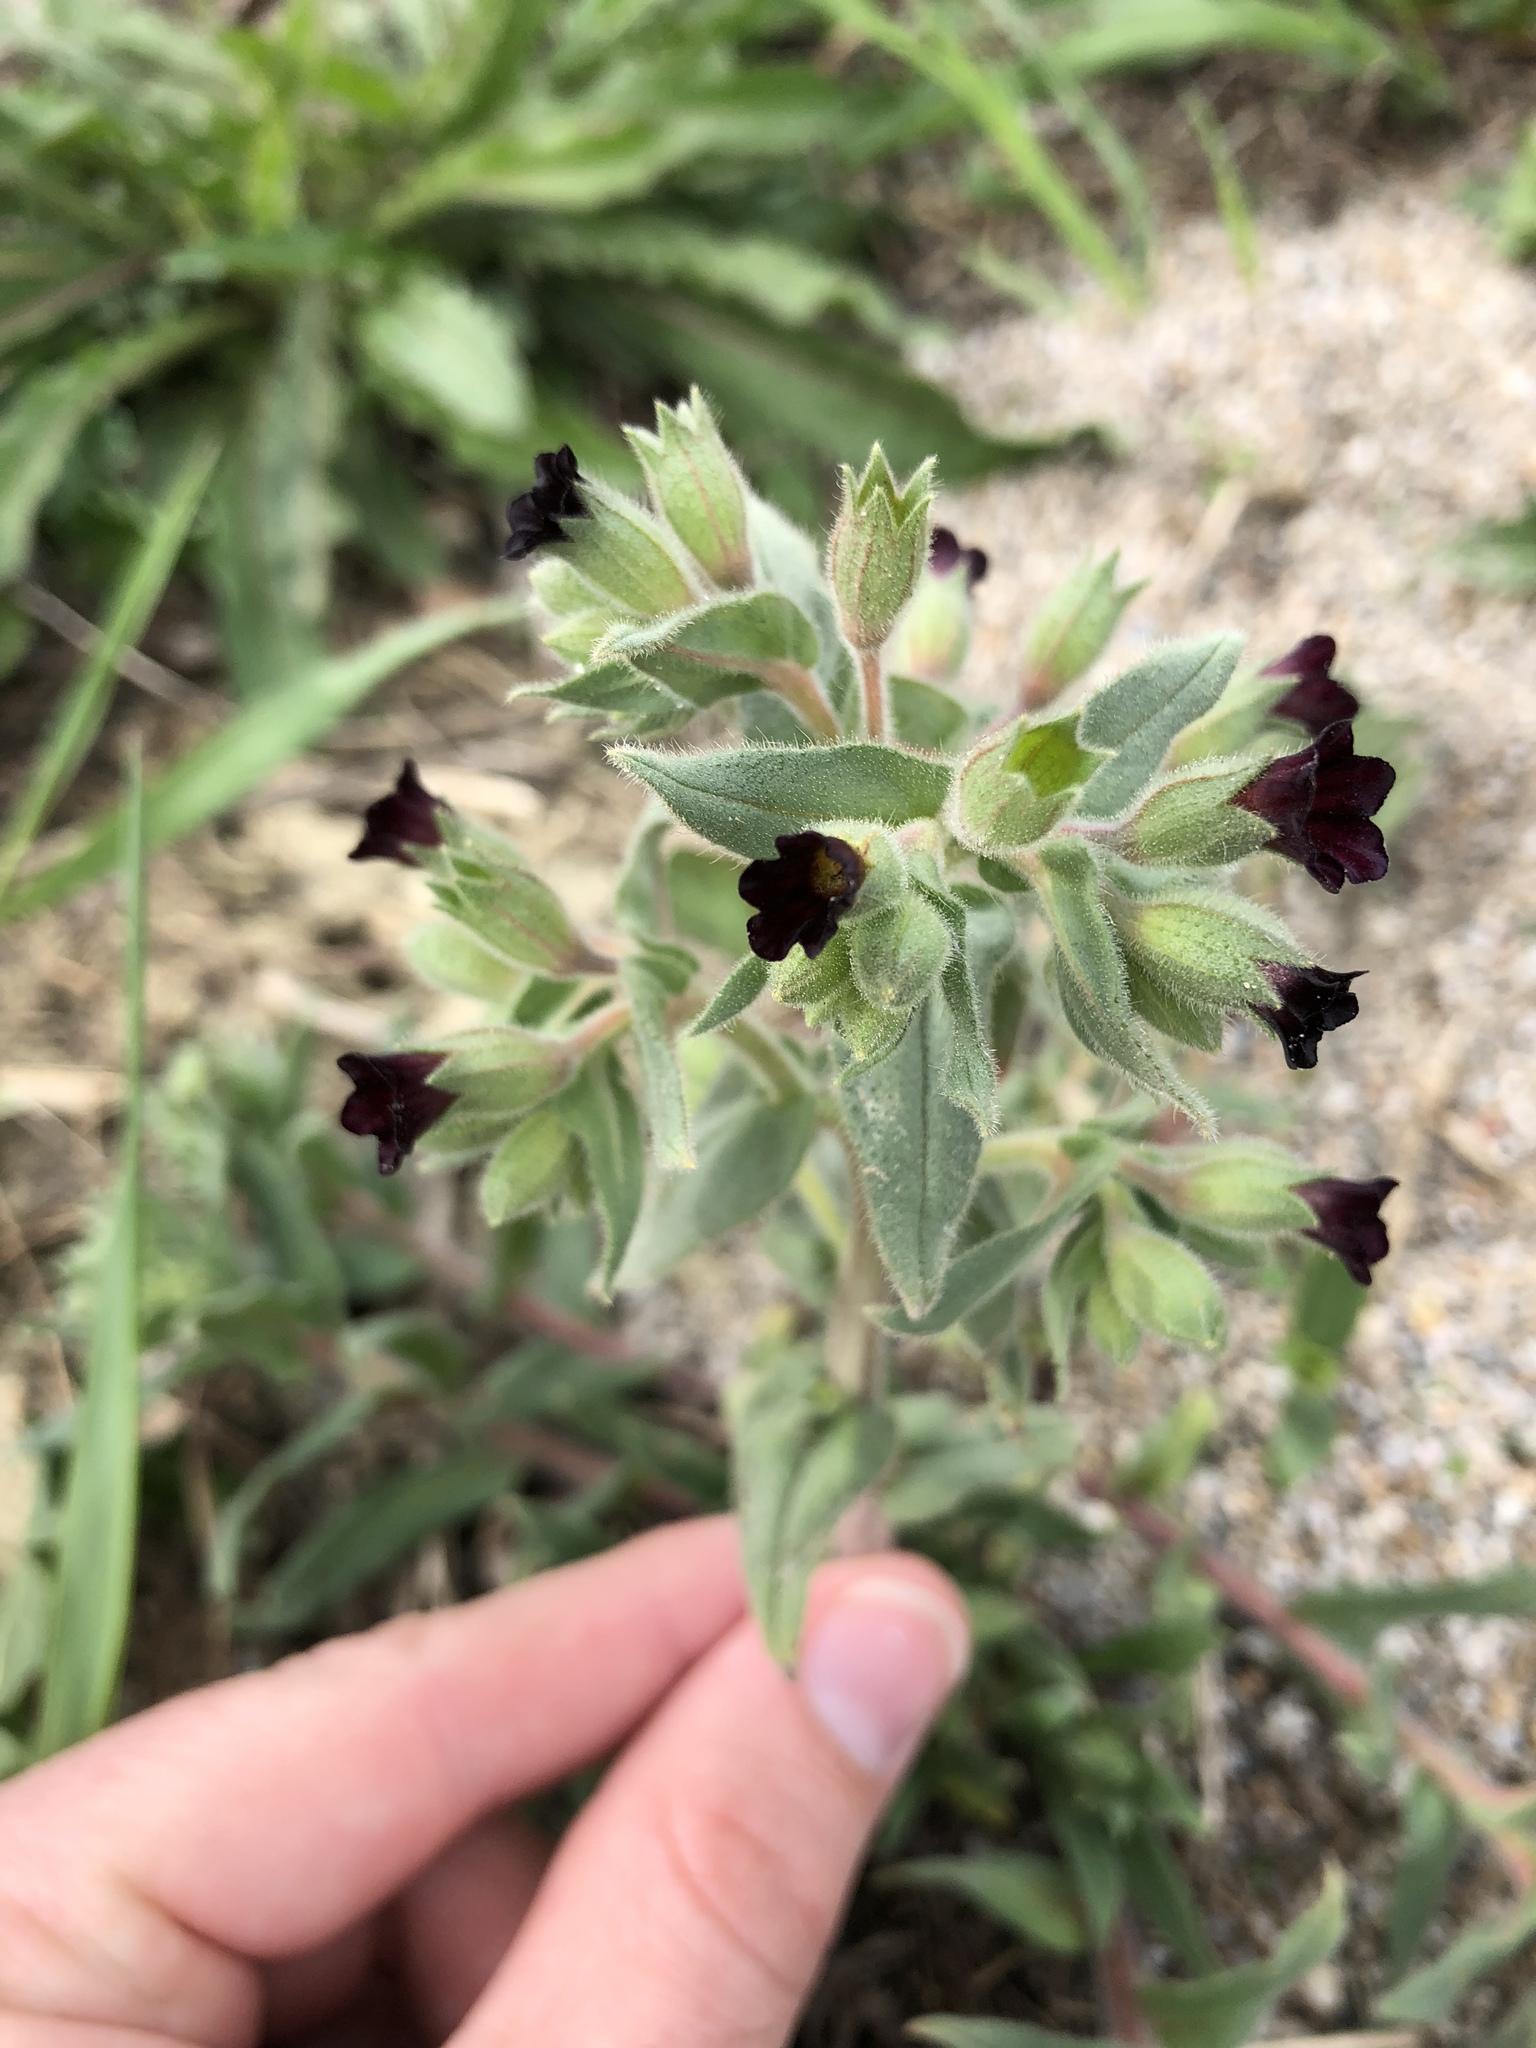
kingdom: Plantae
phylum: Tracheophyta
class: Magnoliopsida
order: Boraginales
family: Boraginaceae
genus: Nonea
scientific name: Nonea pulla
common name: Brown nonea
